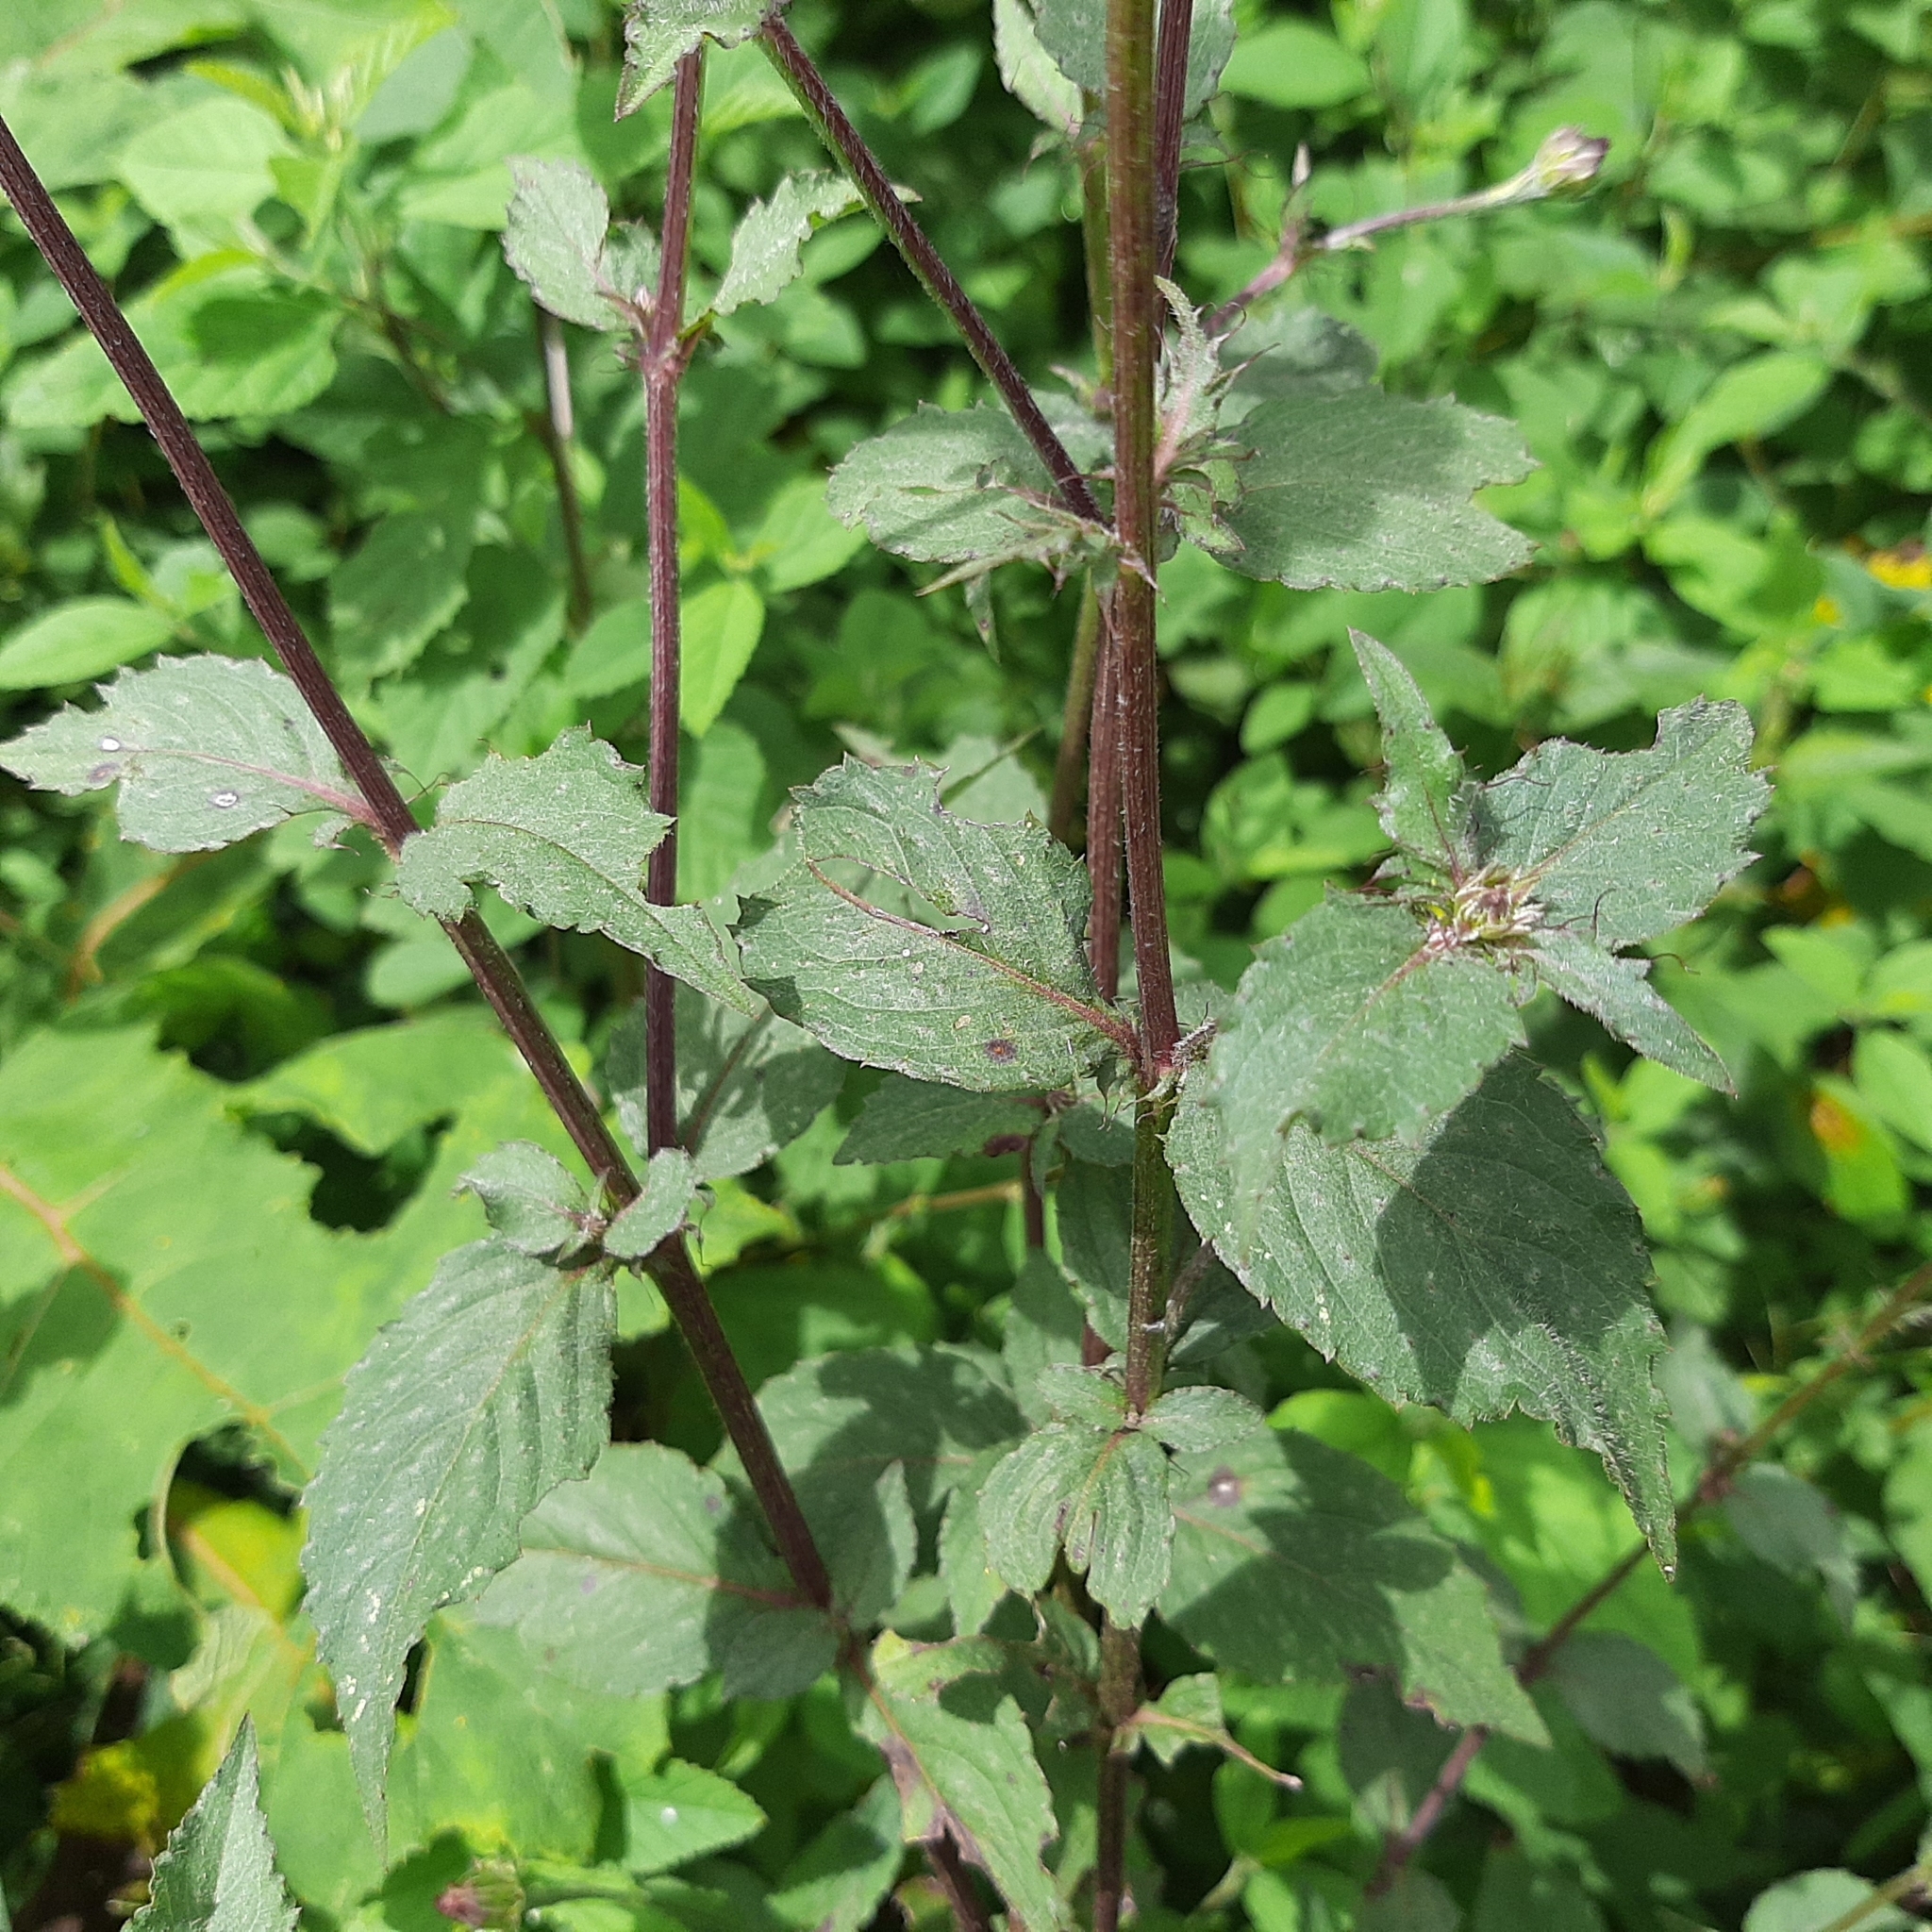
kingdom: Plantae
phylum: Tracheophyta
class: Magnoliopsida
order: Asterales
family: Asteraceae
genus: Comaclinium
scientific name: Comaclinium montanum
